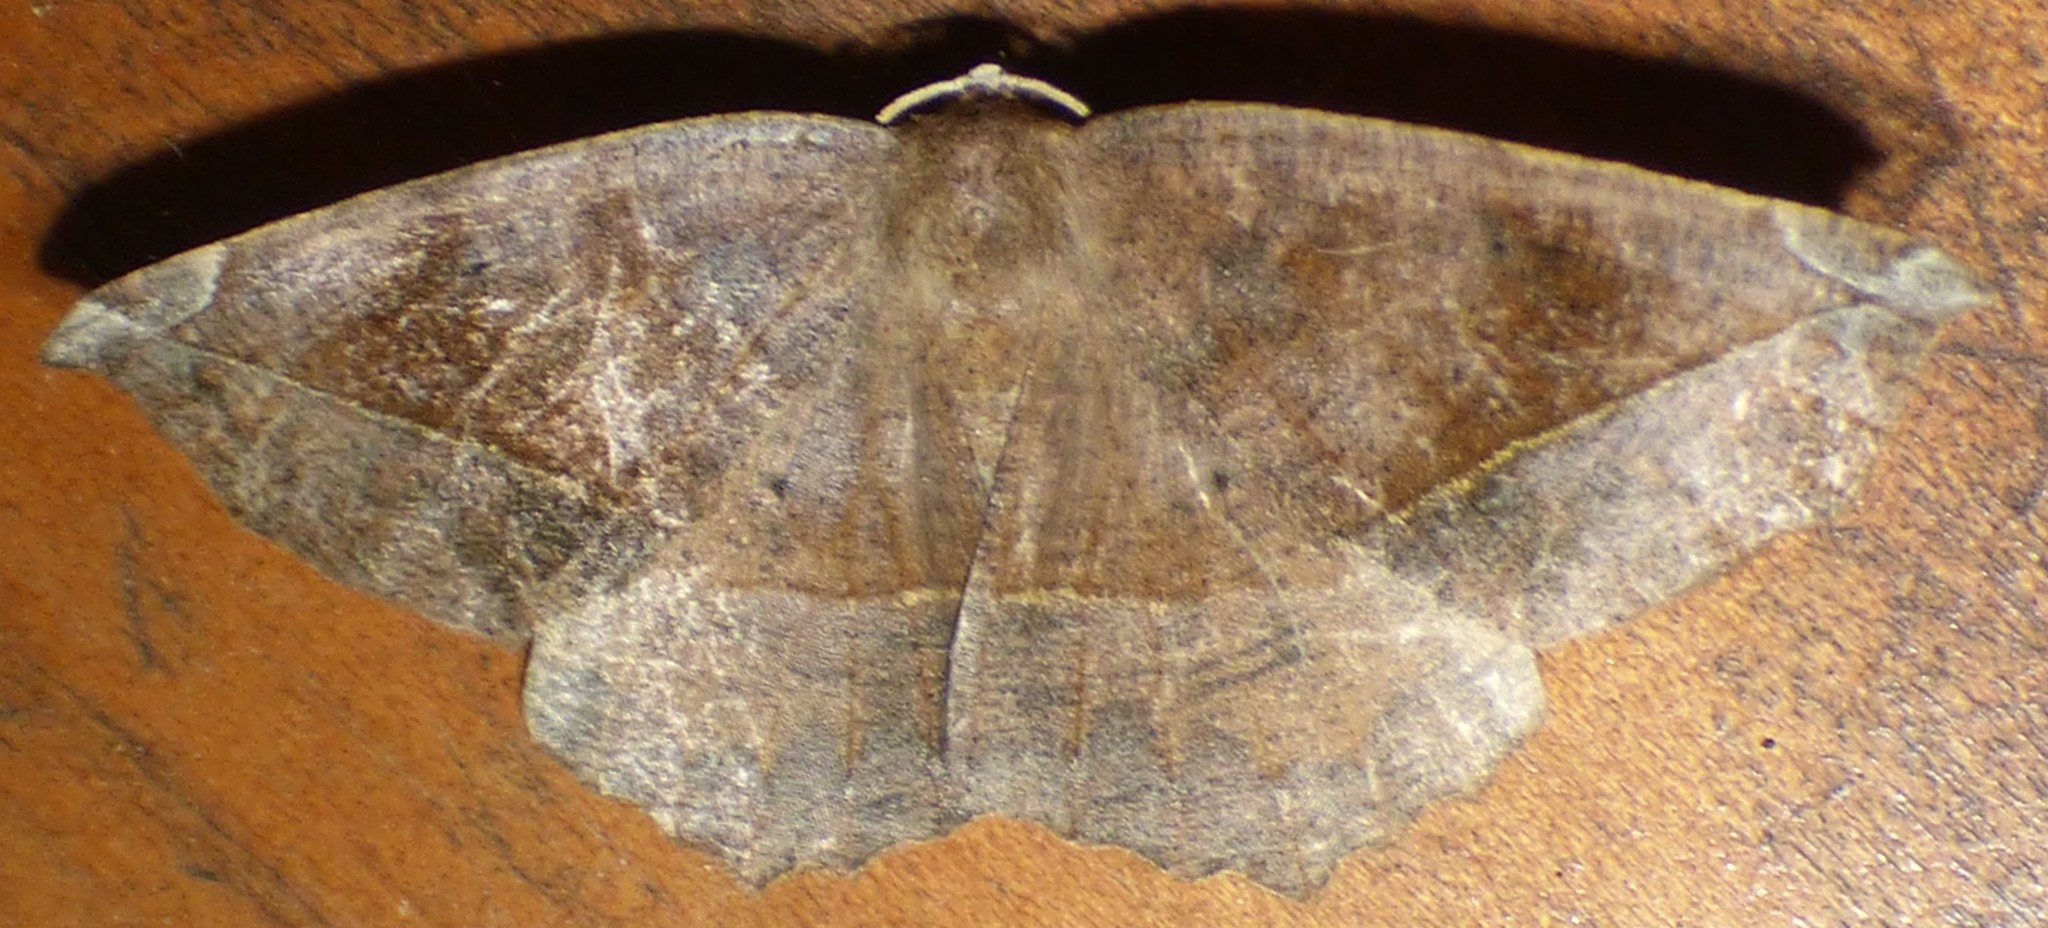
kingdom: Animalia
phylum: Arthropoda
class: Insecta
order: Lepidoptera
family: Geometridae
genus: Eutrapela
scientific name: Eutrapela clemataria
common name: Curved-toothed geometer
